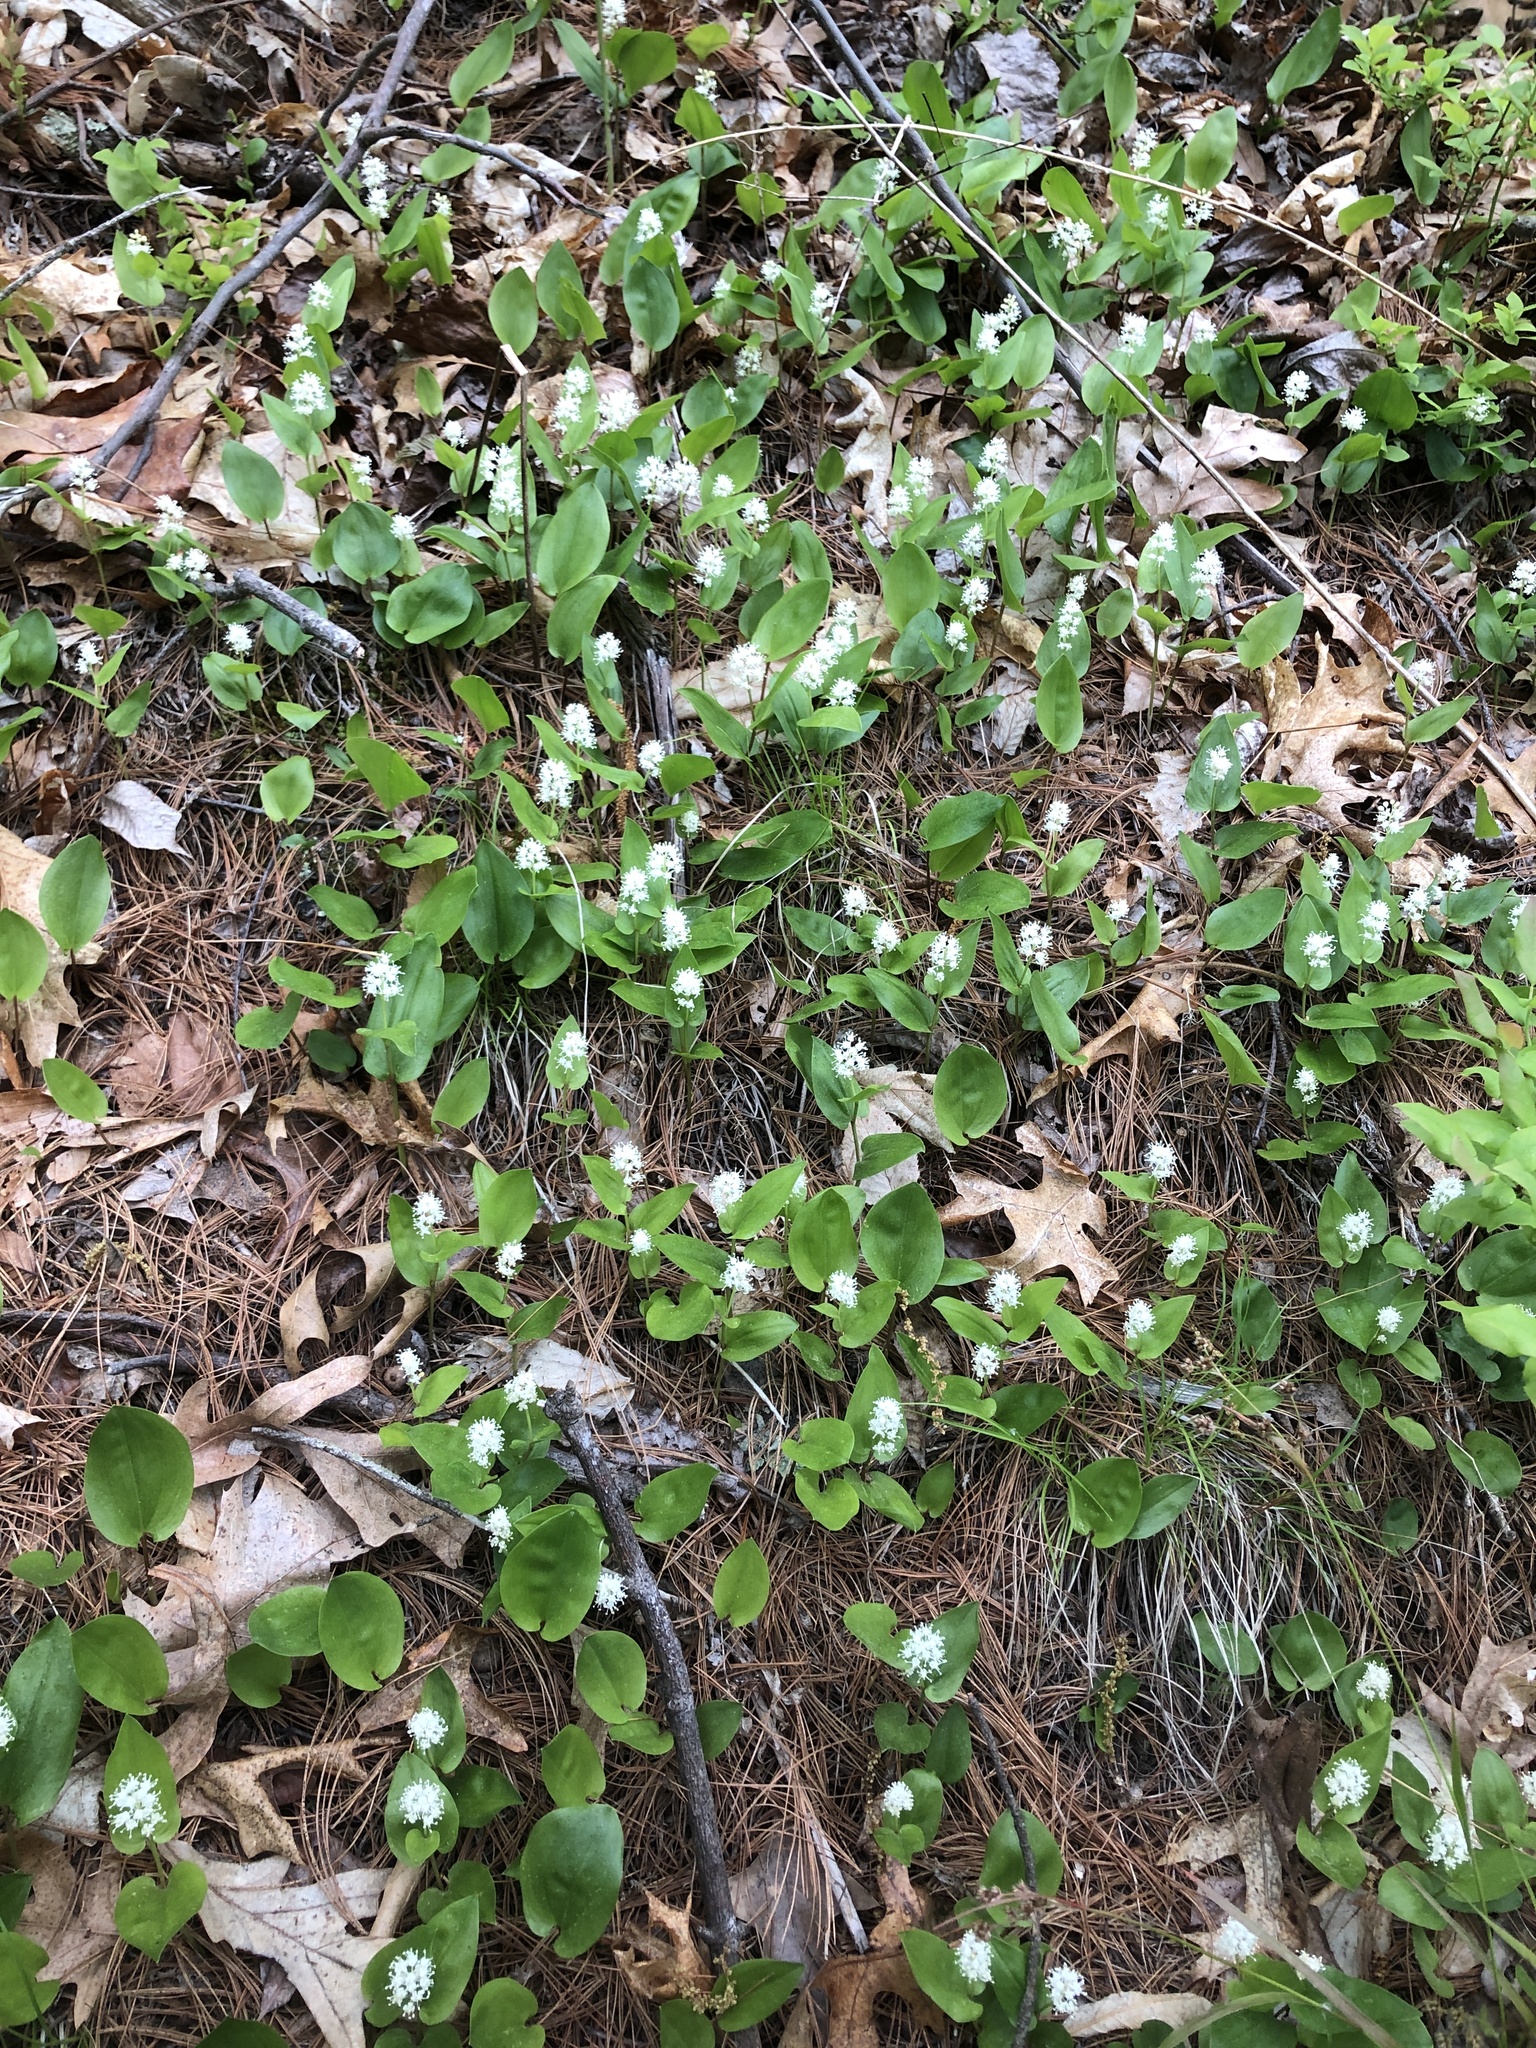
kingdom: Plantae
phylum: Tracheophyta
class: Liliopsida
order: Asparagales
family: Asparagaceae
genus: Maianthemum
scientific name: Maianthemum canadense
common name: False lily-of-the-valley
